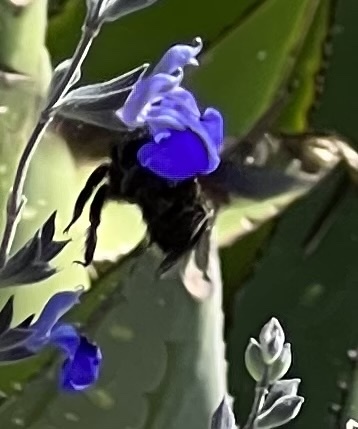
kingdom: Animalia
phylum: Arthropoda
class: Insecta
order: Hymenoptera
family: Apidae
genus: Xylocopa
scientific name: Xylocopa violacea
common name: Violet carpenter bee
